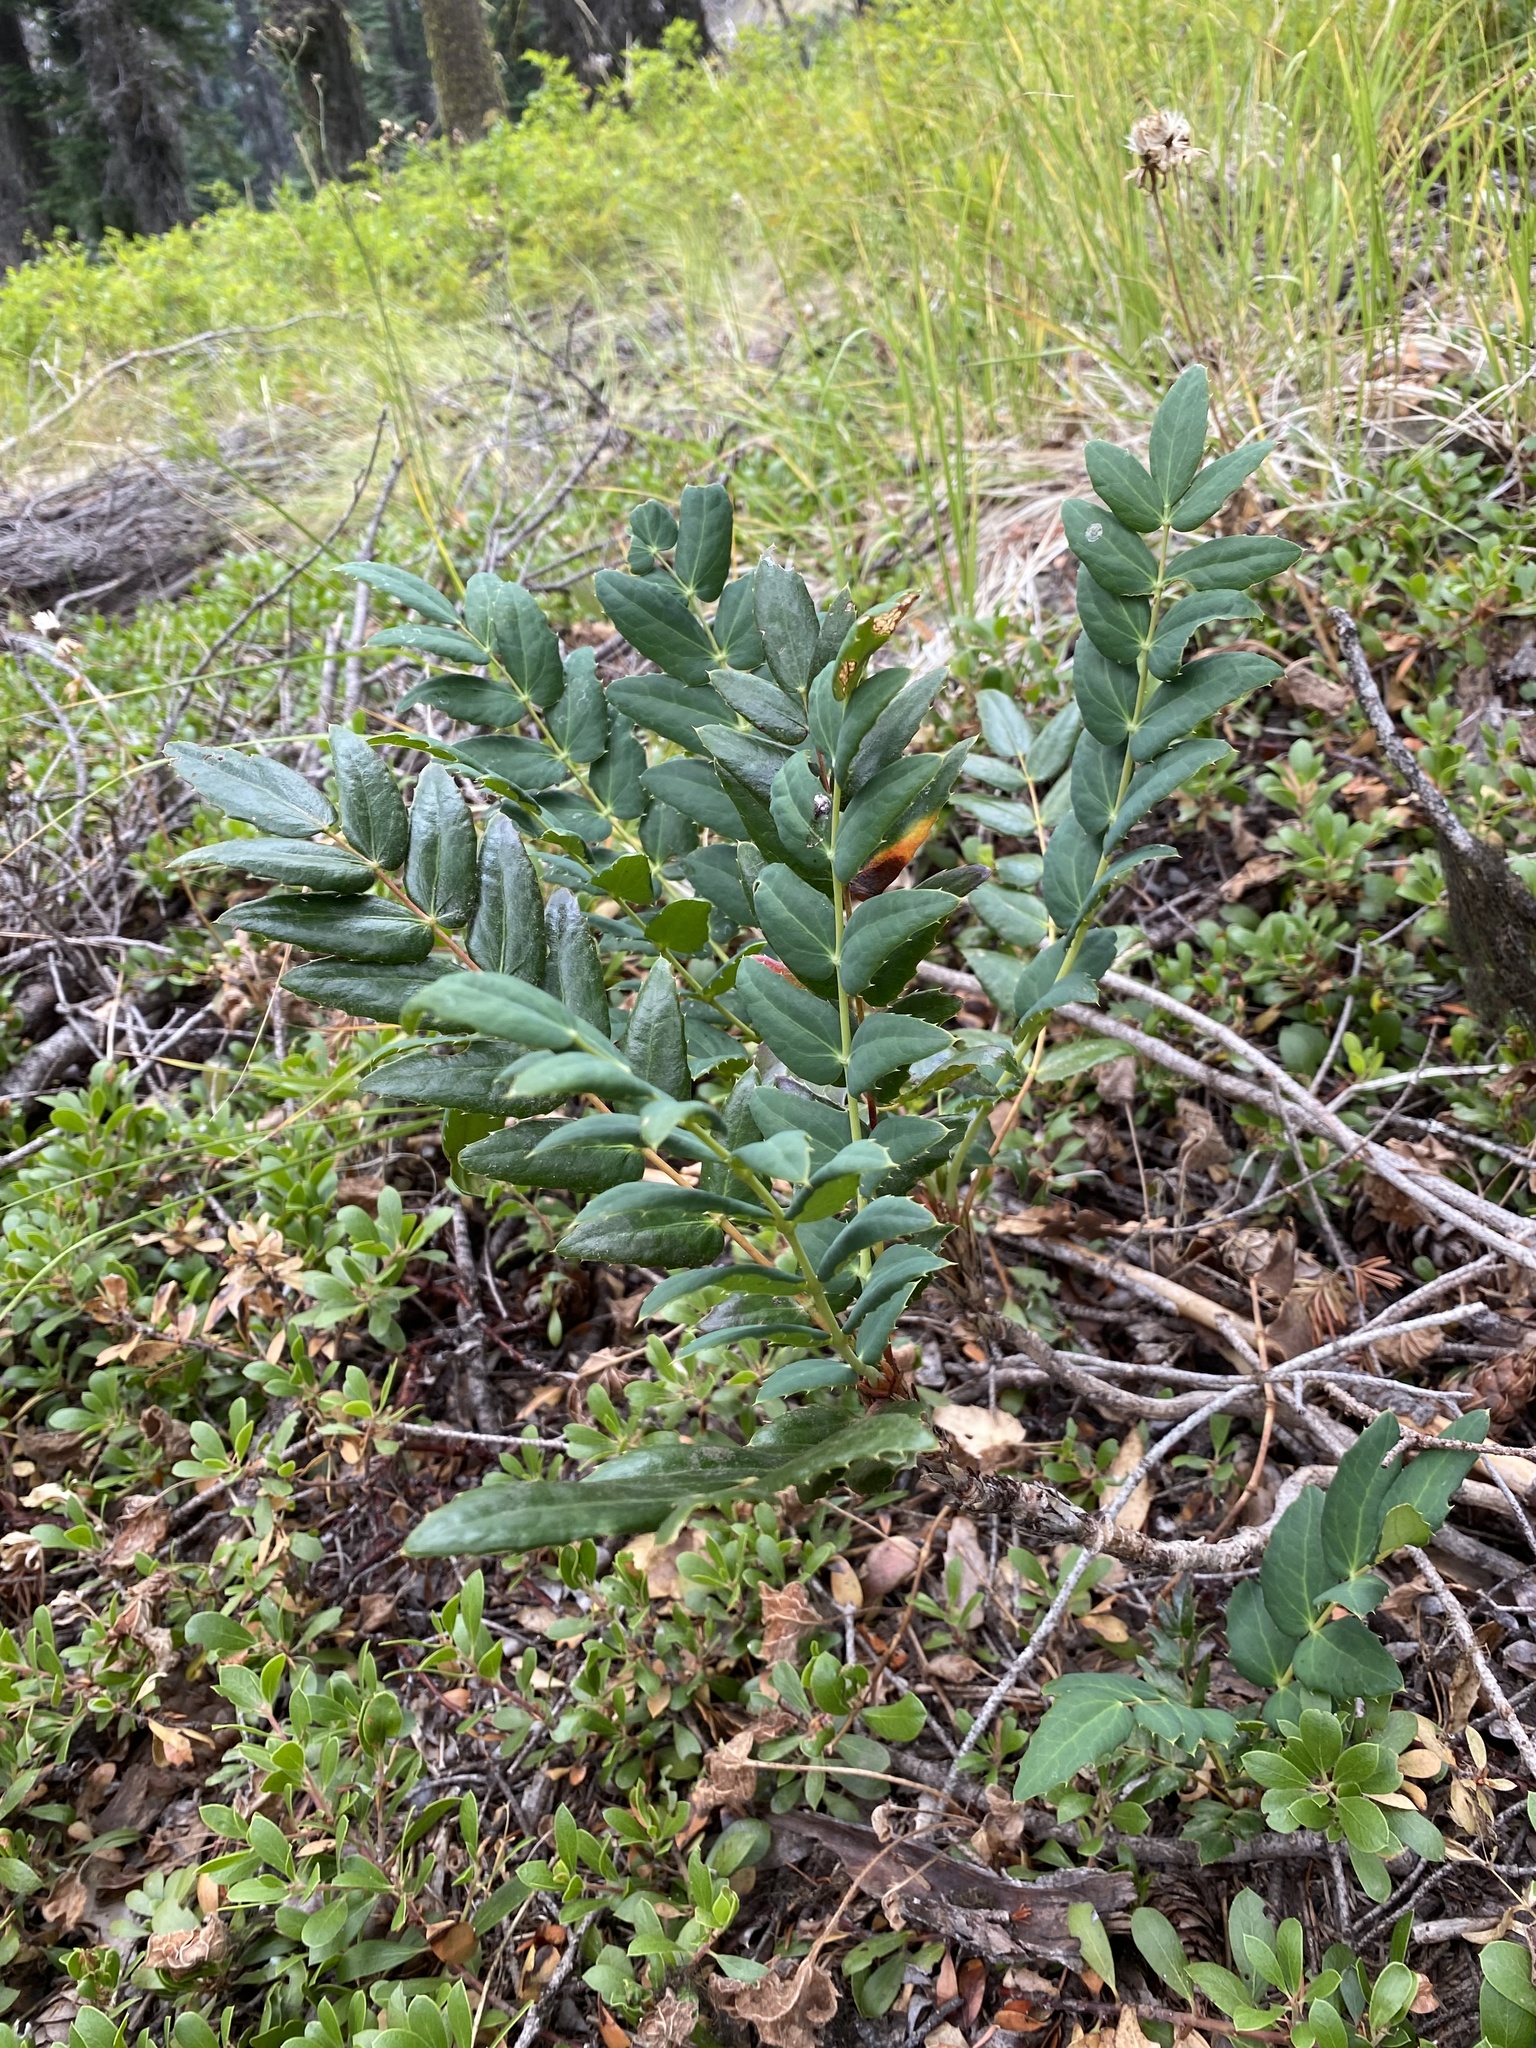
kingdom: Plantae
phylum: Tracheophyta
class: Magnoliopsida
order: Ranunculales
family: Berberidaceae
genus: Mahonia
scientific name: Mahonia nervosa
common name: Cascade oregon-grape
